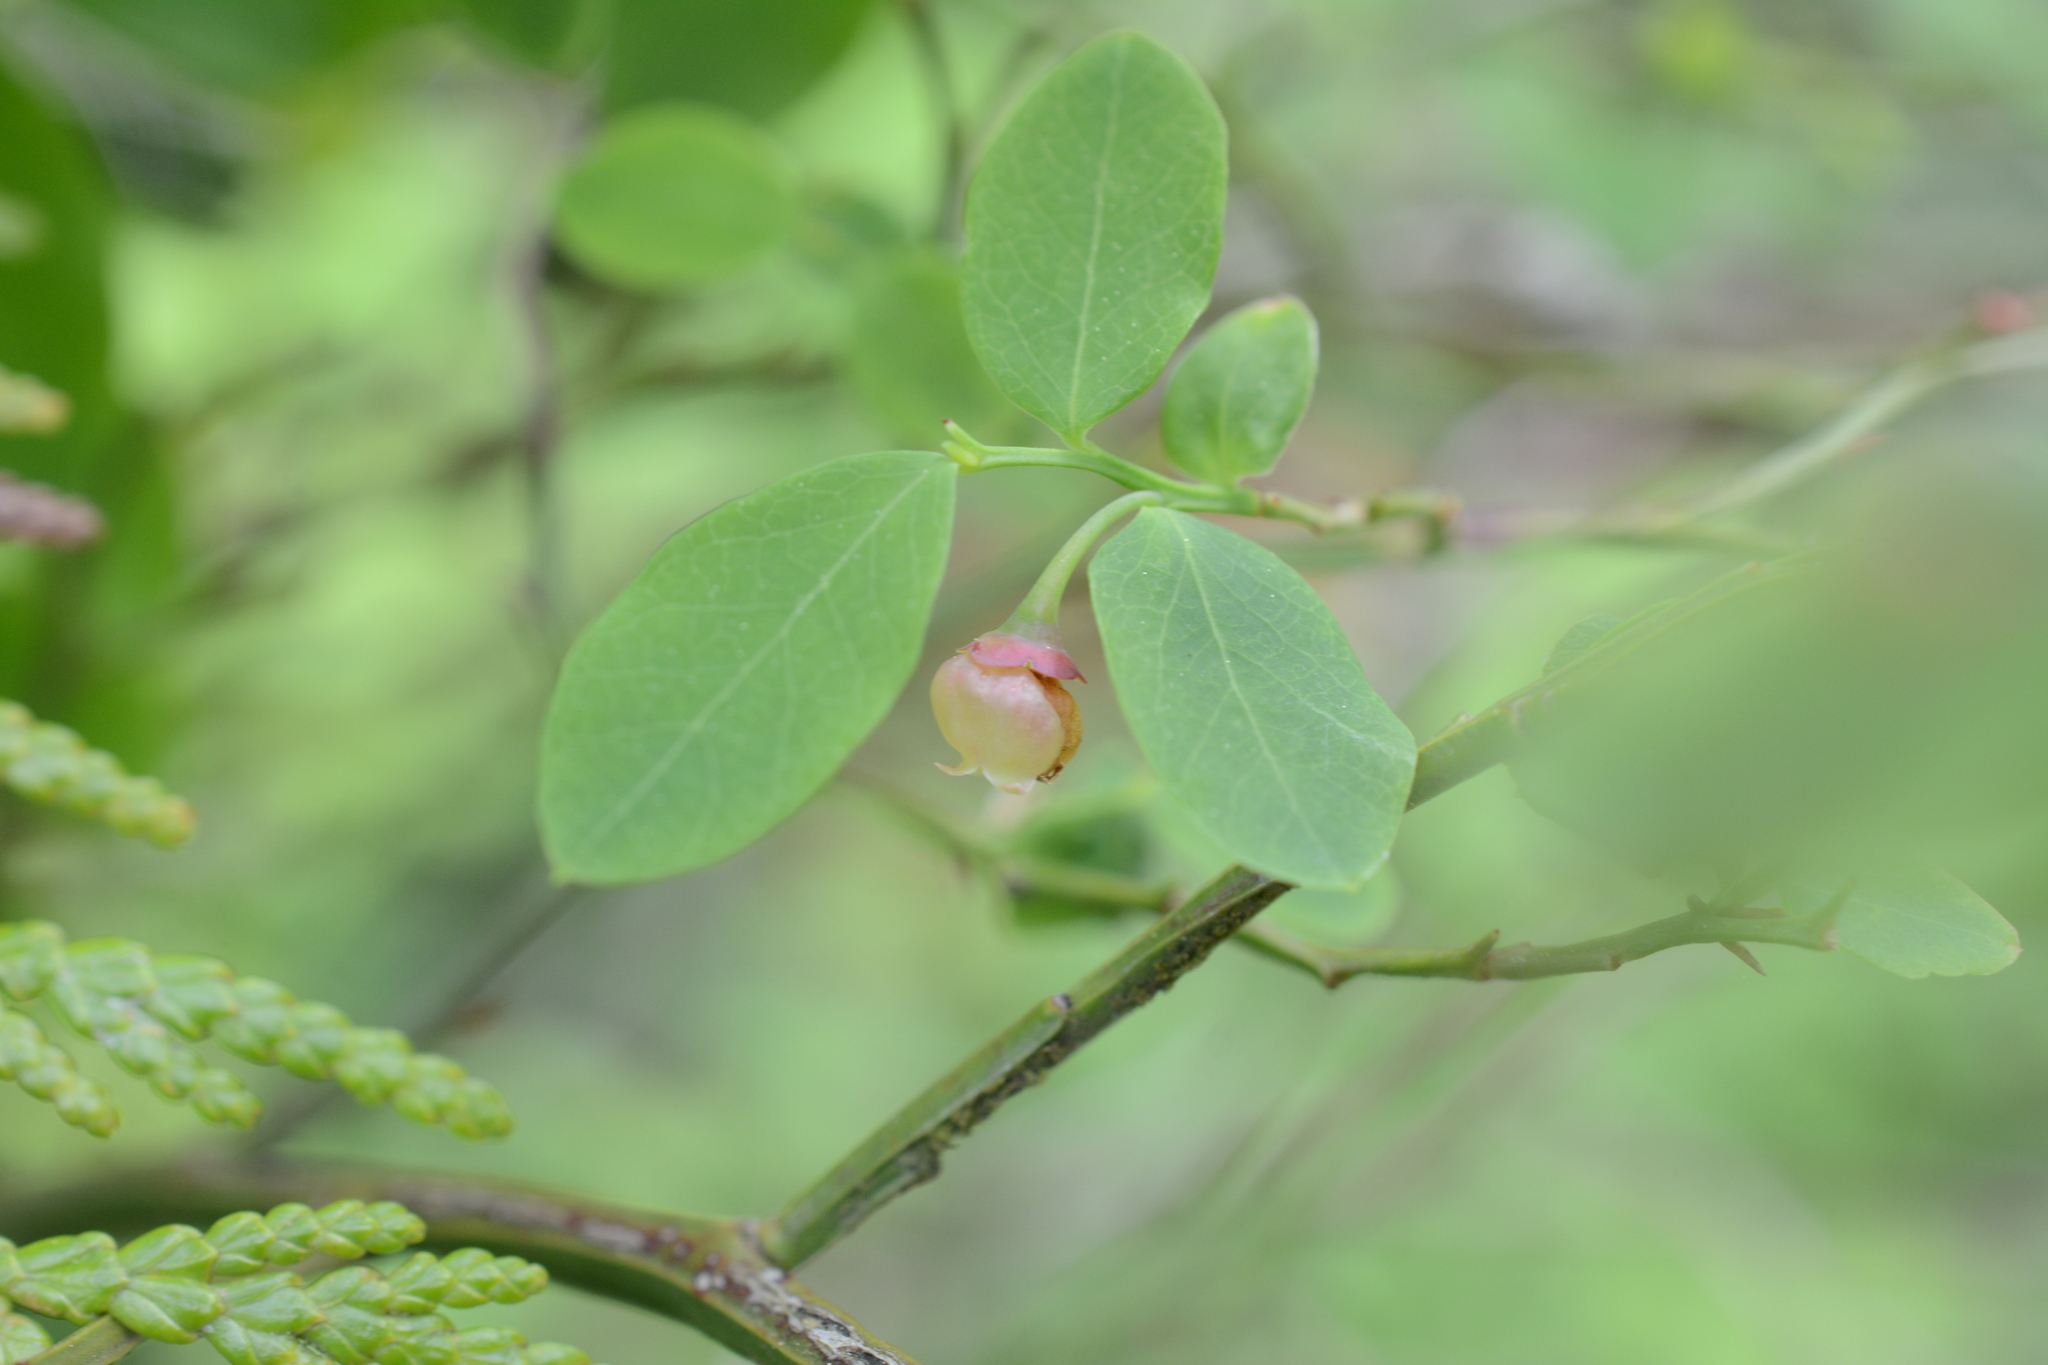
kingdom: Plantae
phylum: Tracheophyta
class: Magnoliopsida
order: Ericales
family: Ericaceae
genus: Vaccinium
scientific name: Vaccinium parvifolium
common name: Red-huckleberry
